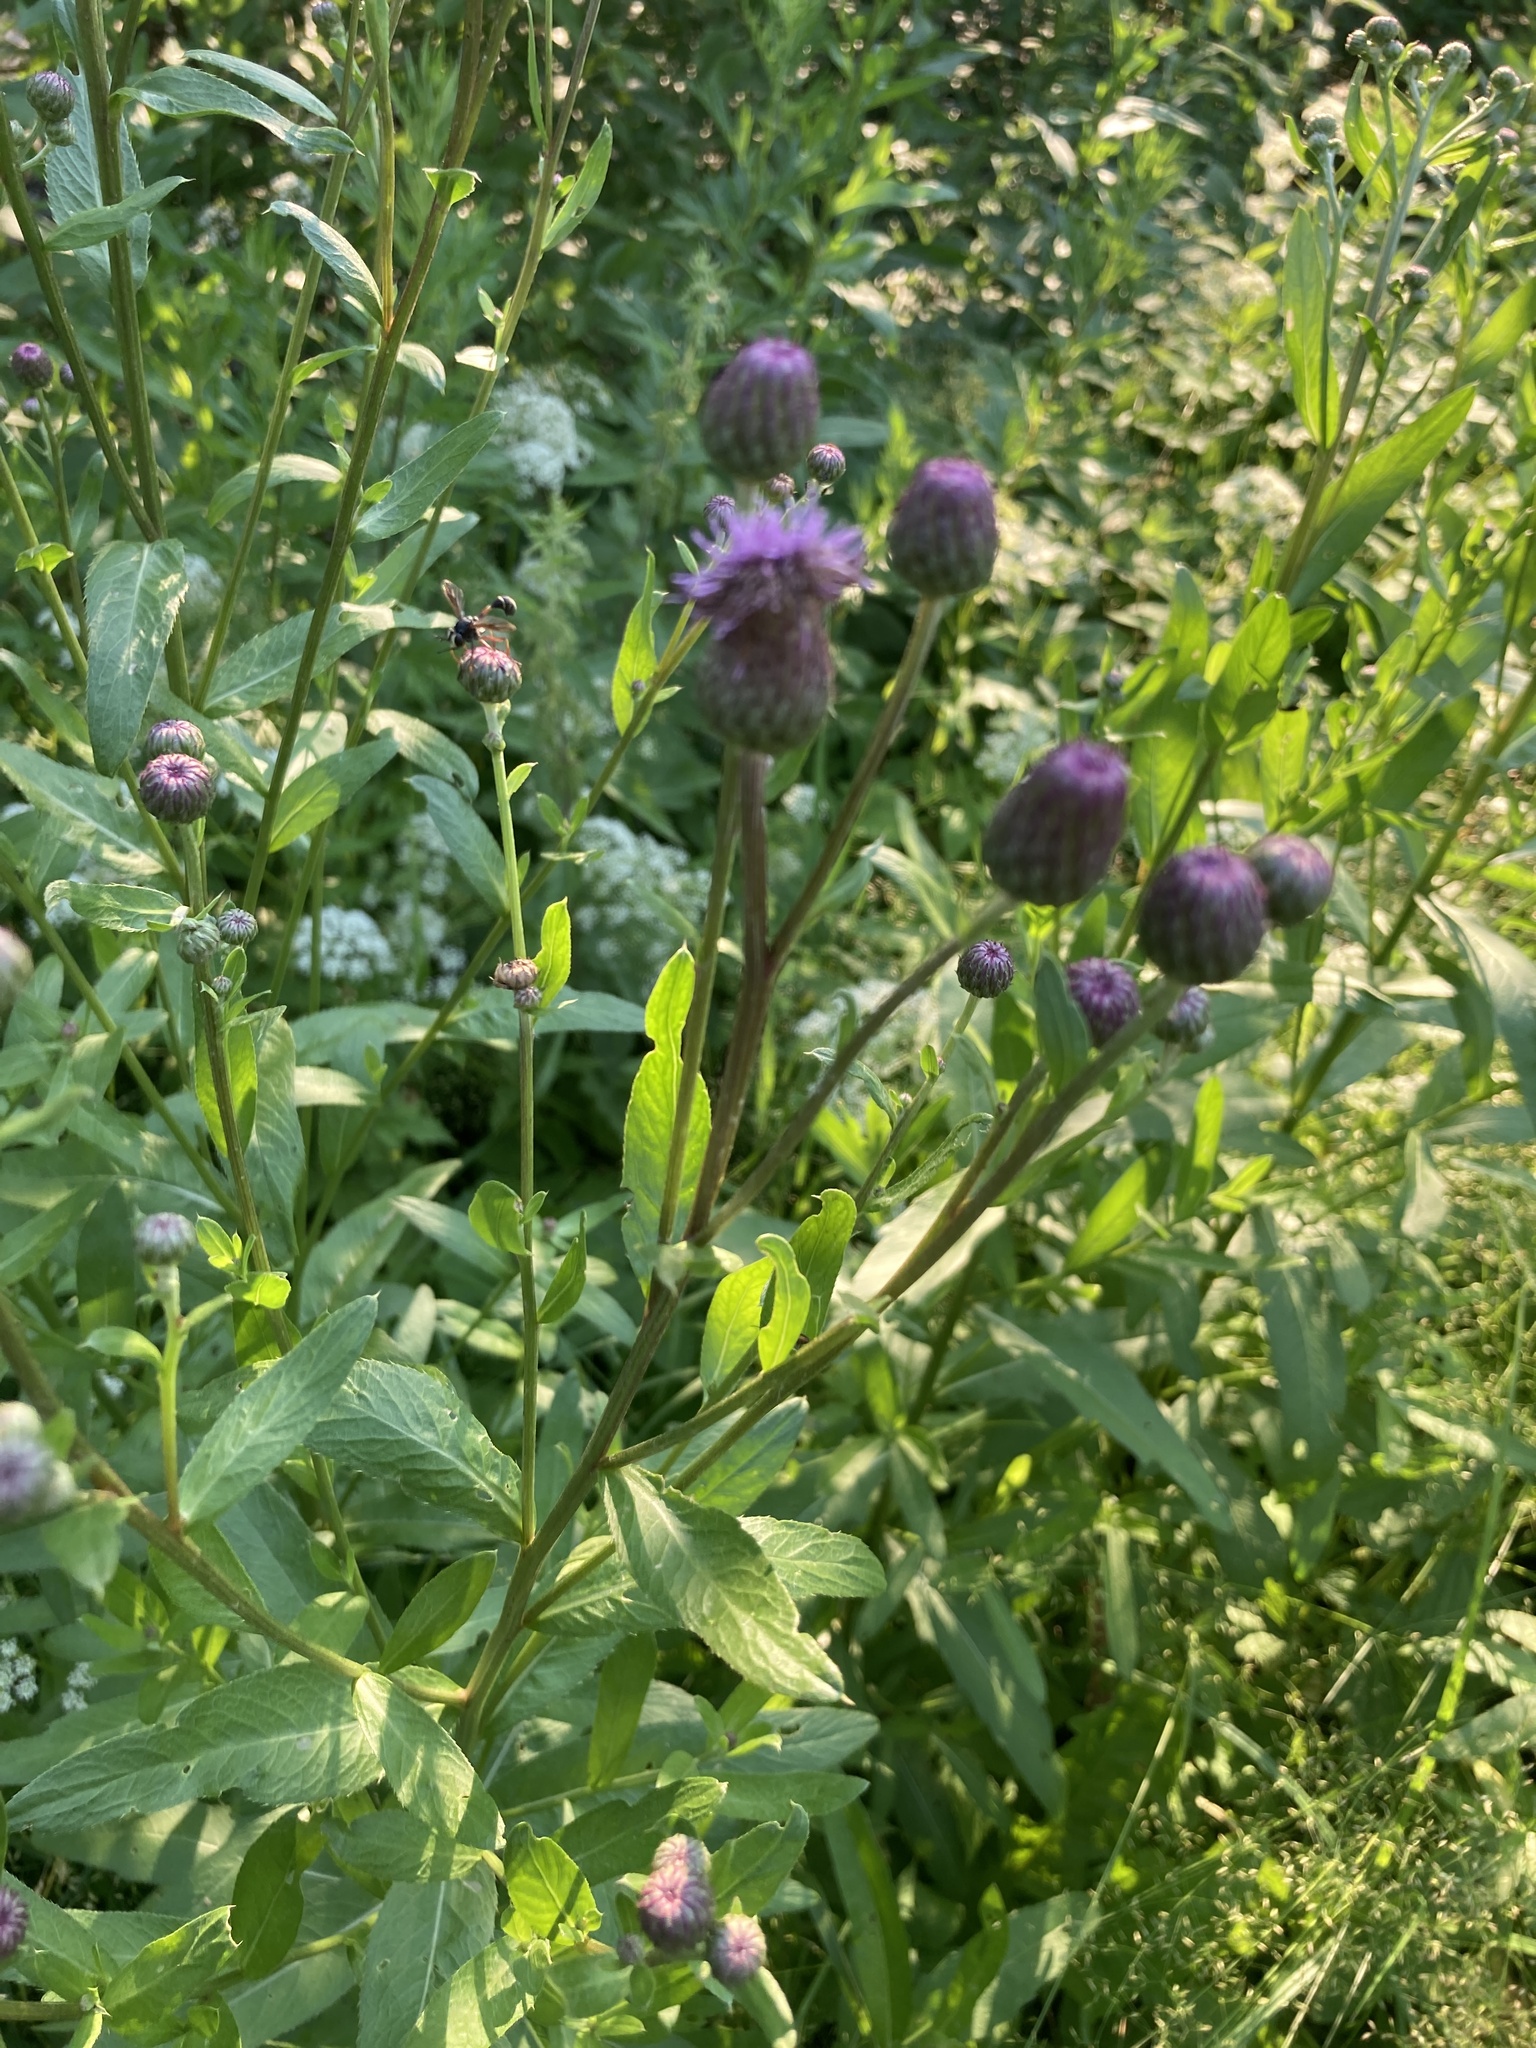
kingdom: Plantae
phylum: Tracheophyta
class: Magnoliopsida
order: Asterales
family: Asteraceae
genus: Cirsium
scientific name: Cirsium arvense
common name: Creeping thistle
